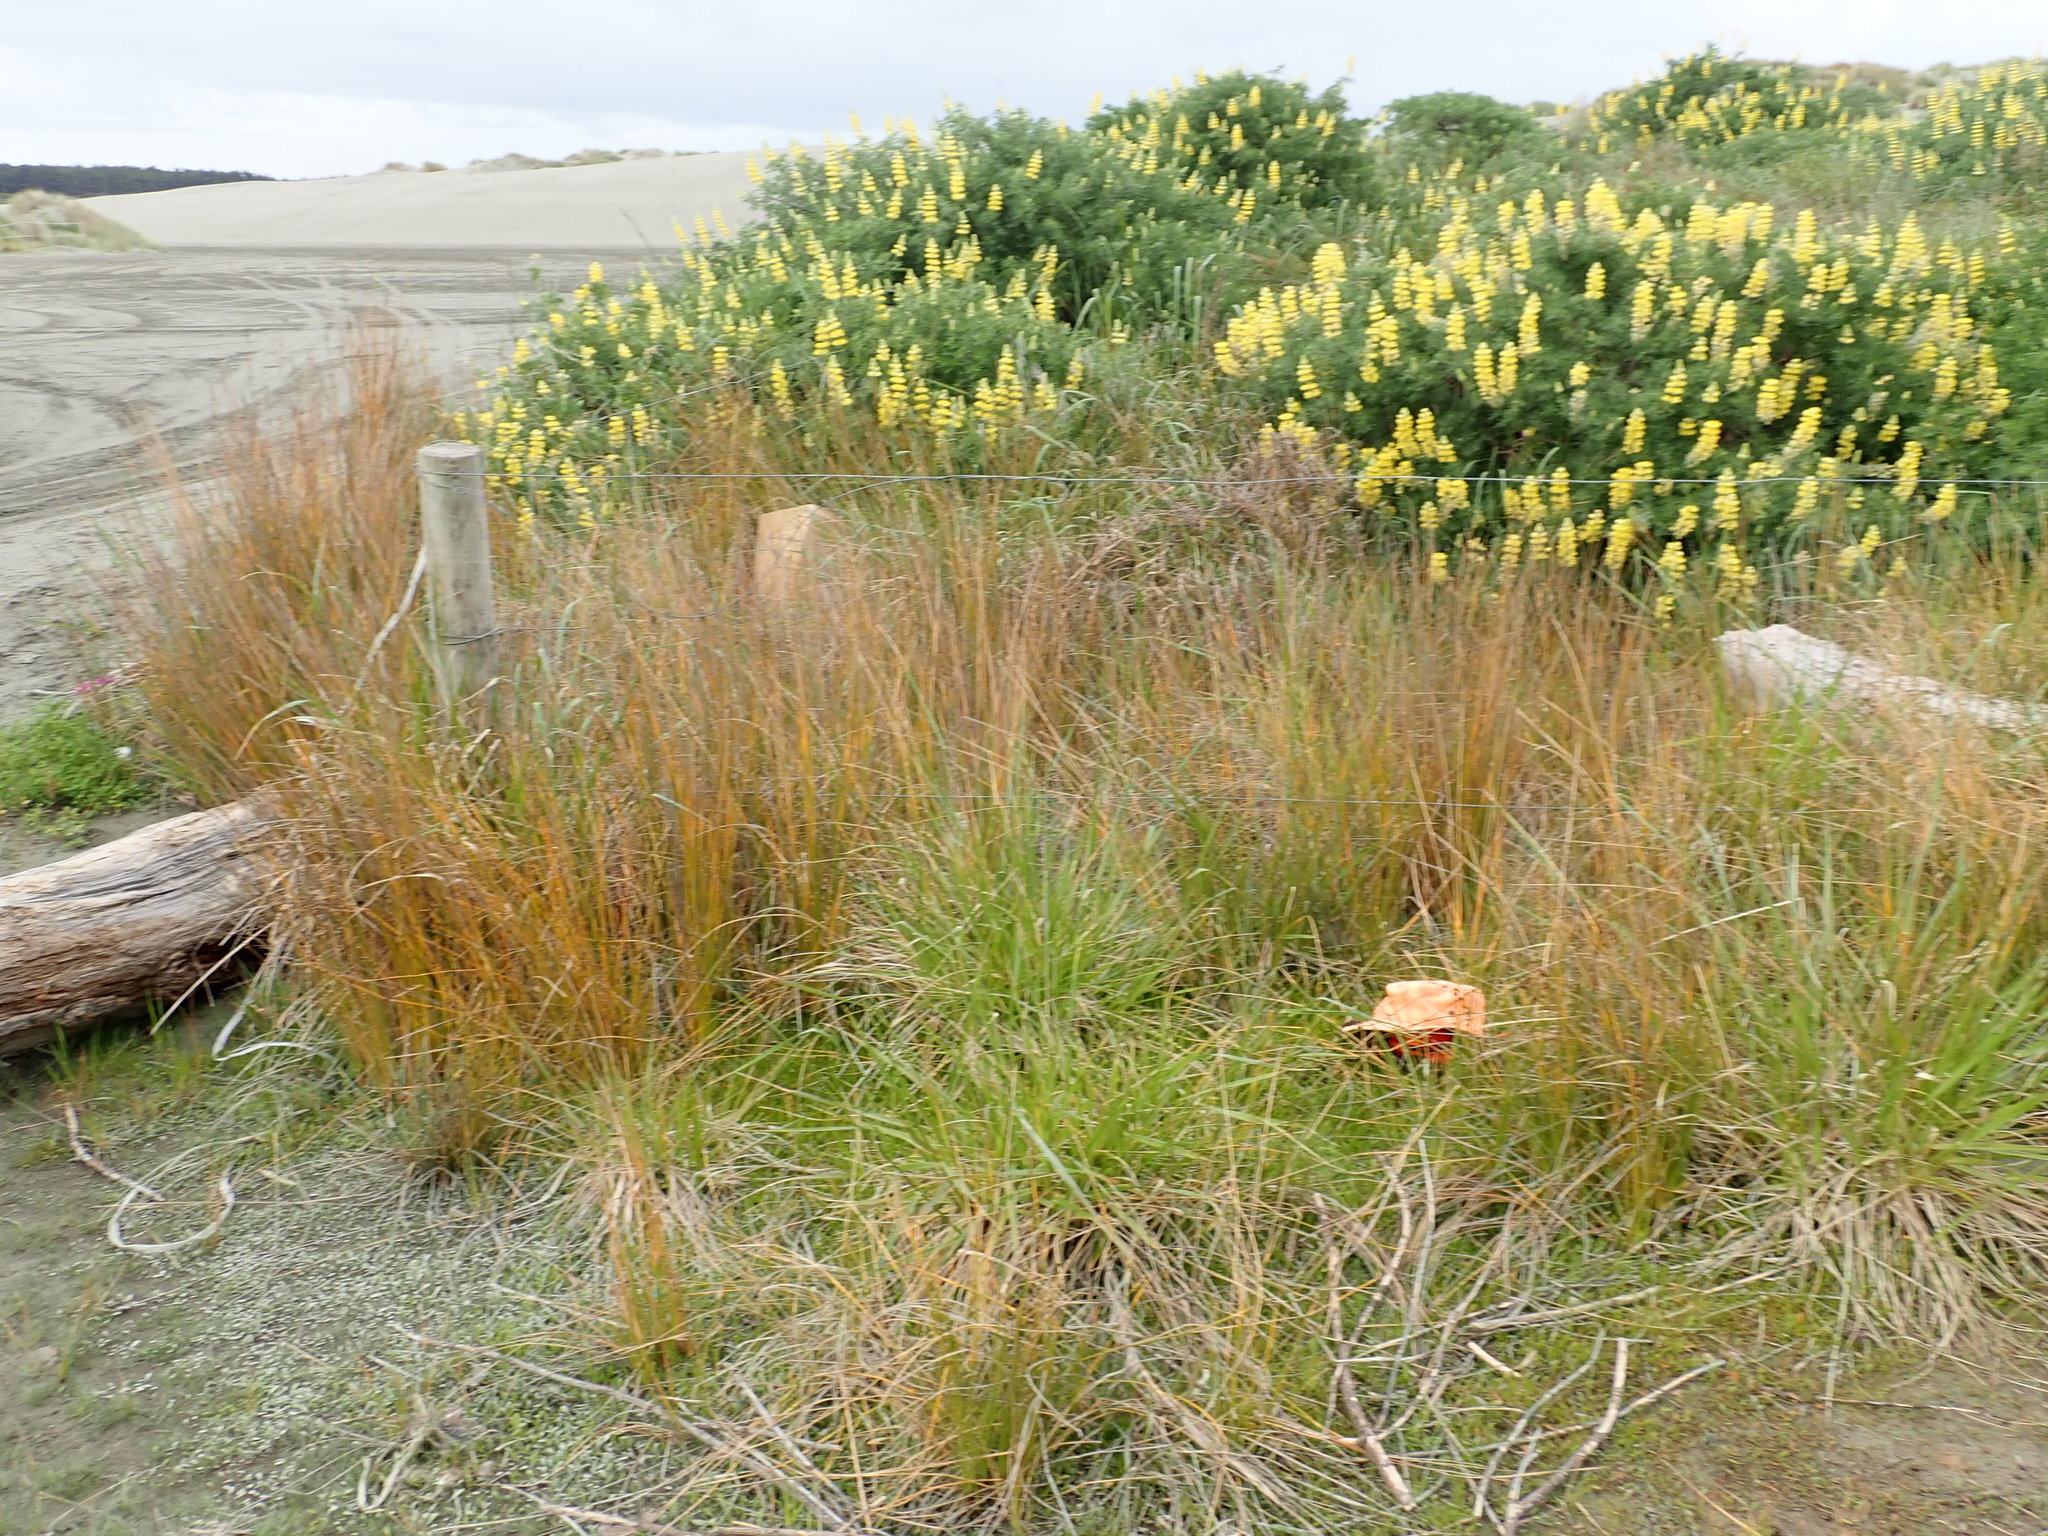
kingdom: Plantae
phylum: Tracheophyta
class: Magnoliopsida
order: Asterales
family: Goodeniaceae
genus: Goodenia
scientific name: Goodenia radicans
